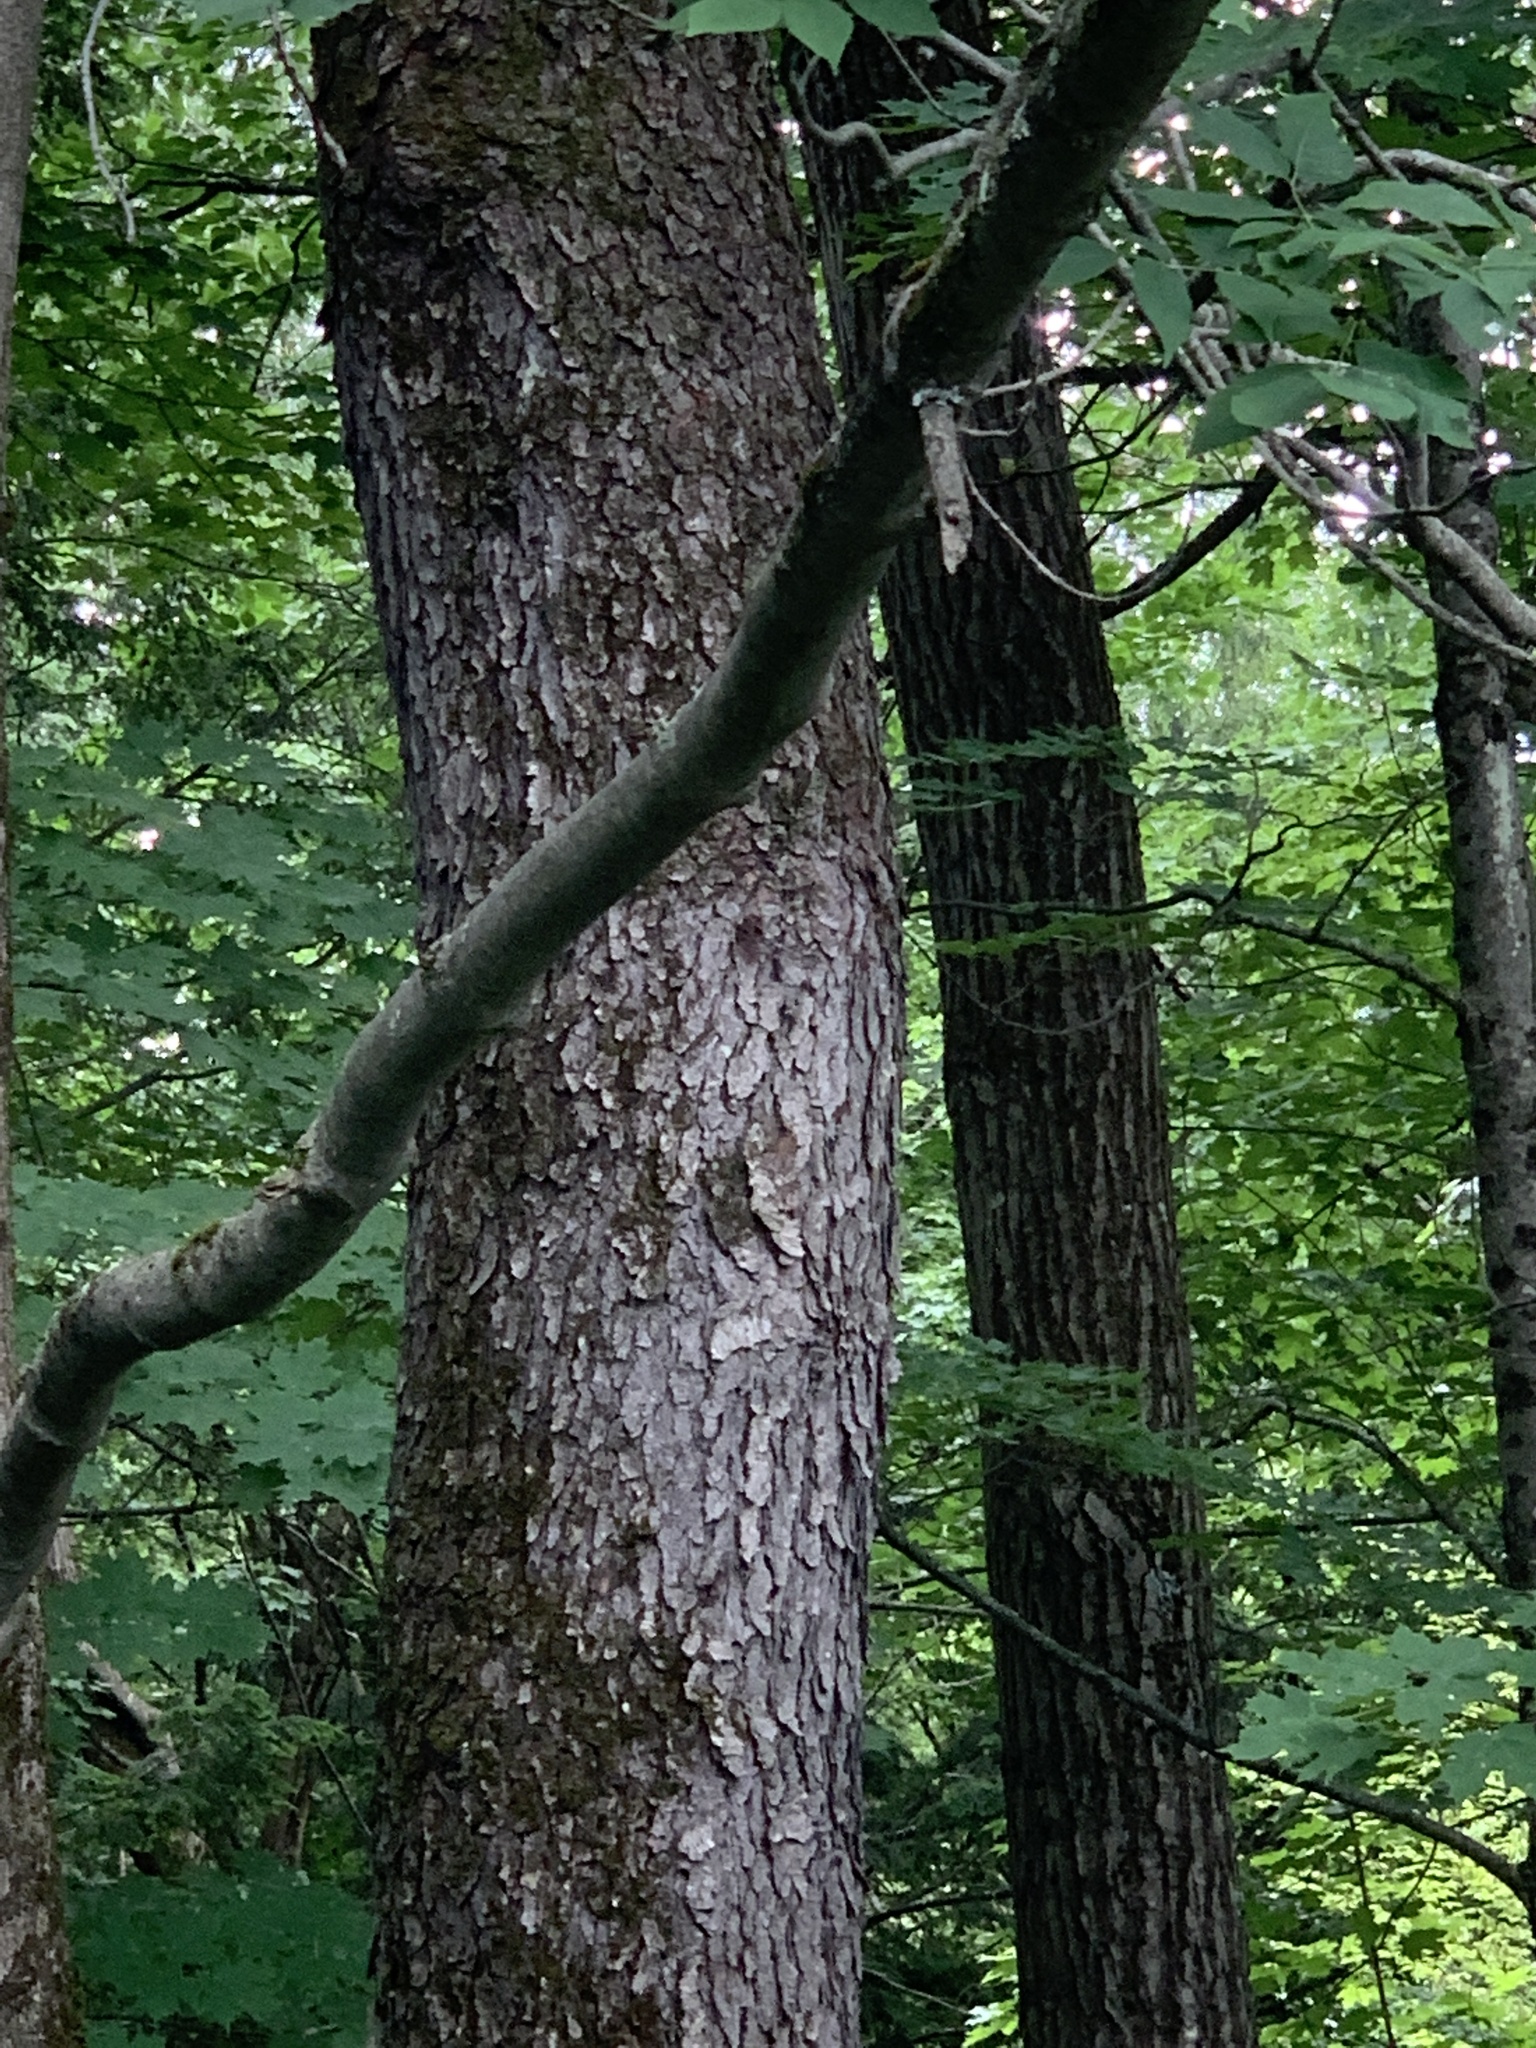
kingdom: Plantae
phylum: Tracheophyta
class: Magnoliopsida
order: Rosales
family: Rosaceae
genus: Prunus
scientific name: Prunus serotina
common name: Black cherry
